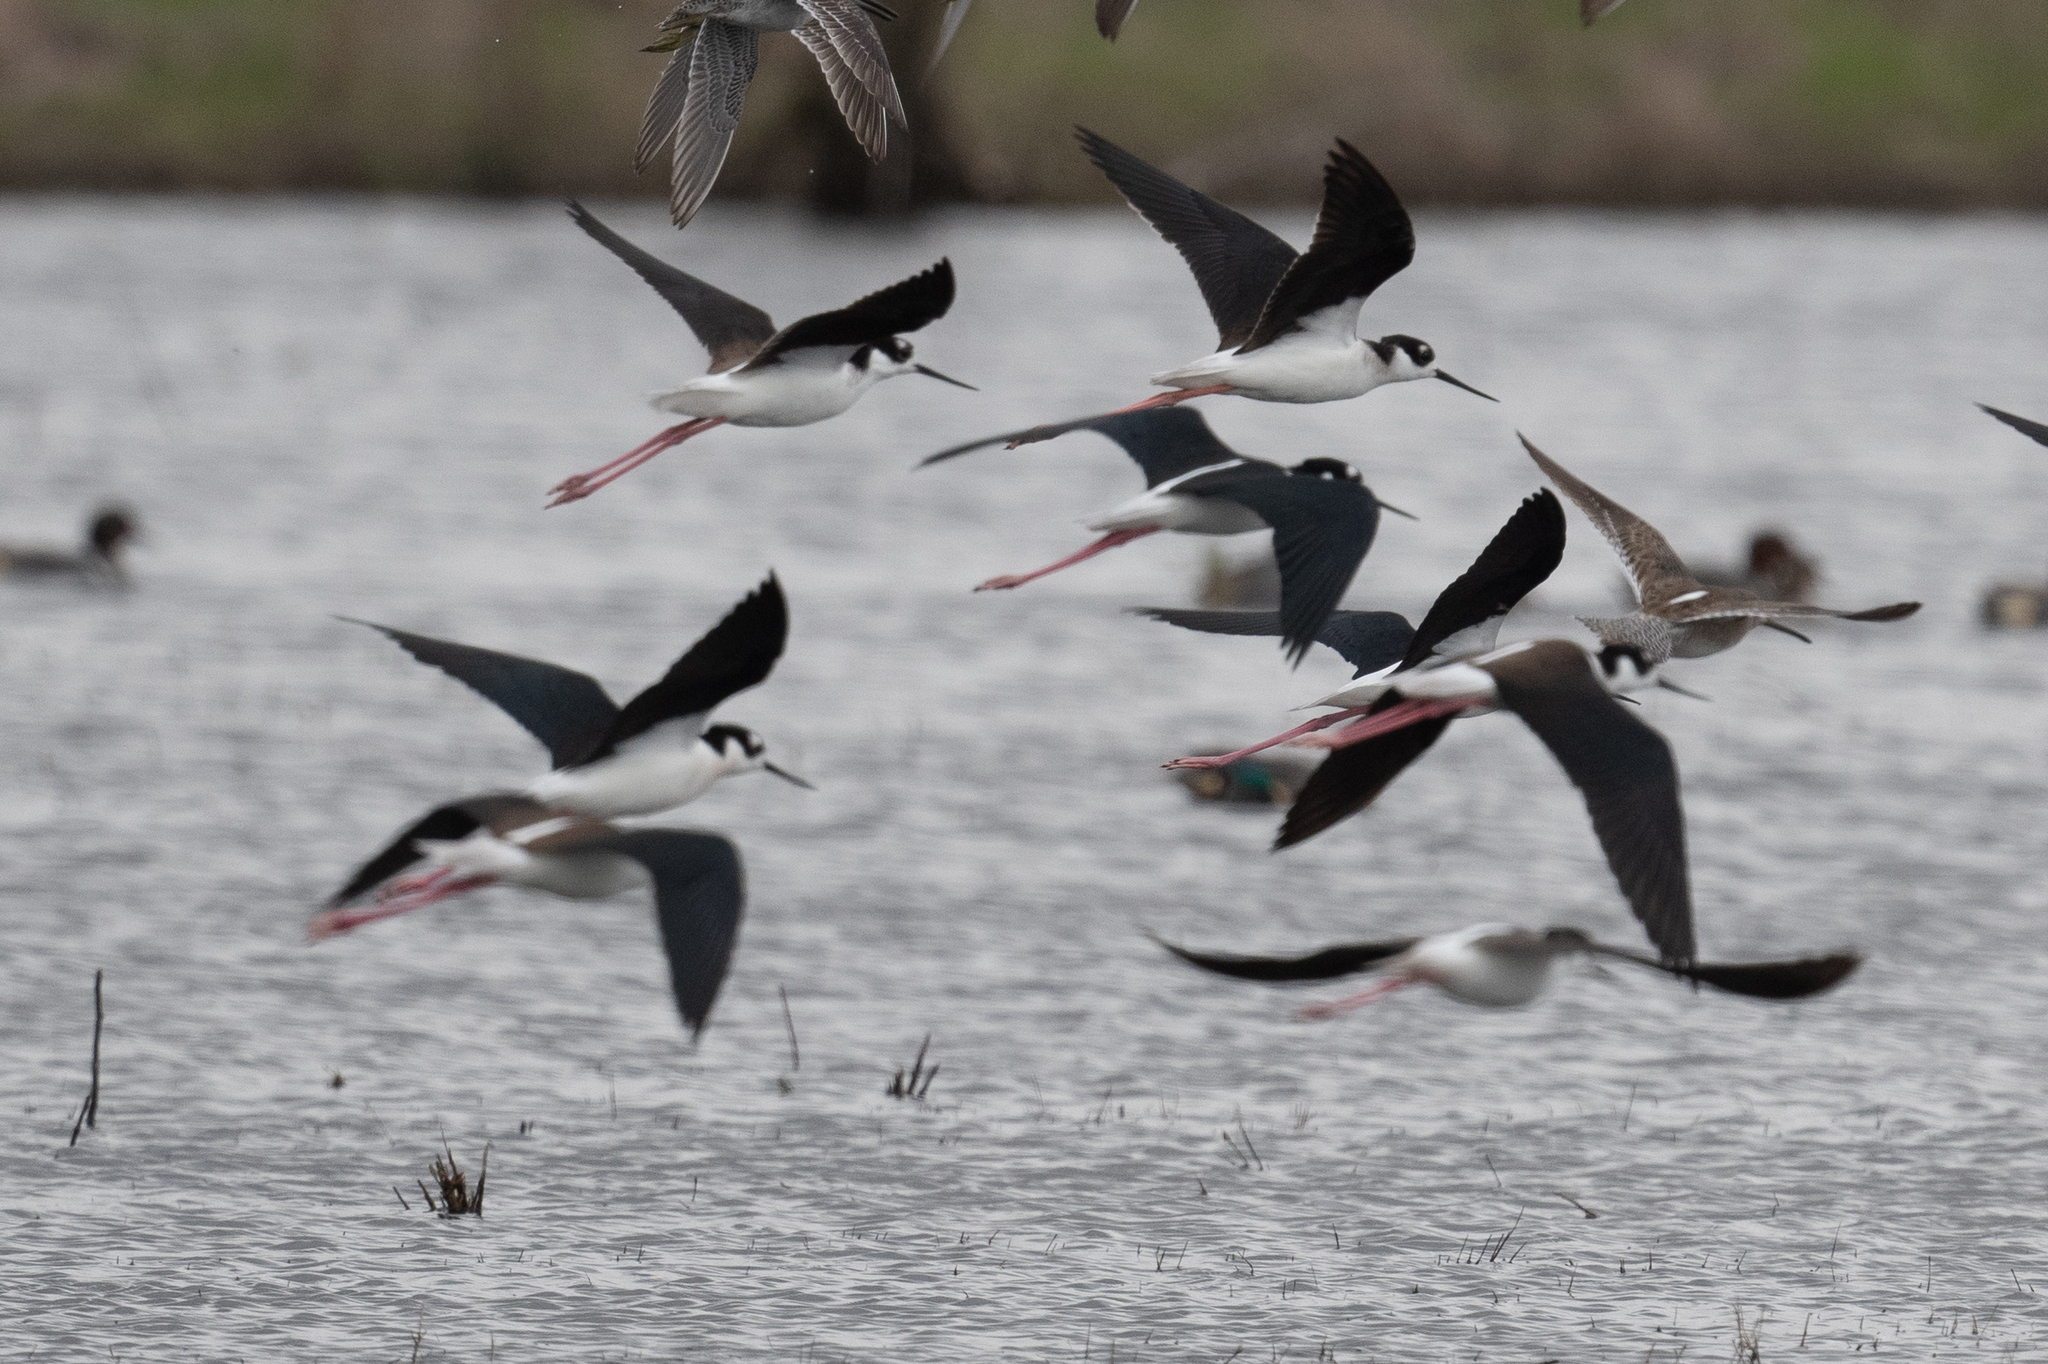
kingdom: Animalia
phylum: Chordata
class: Aves
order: Charadriiformes
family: Recurvirostridae
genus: Himantopus
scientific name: Himantopus mexicanus
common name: Black-necked stilt
